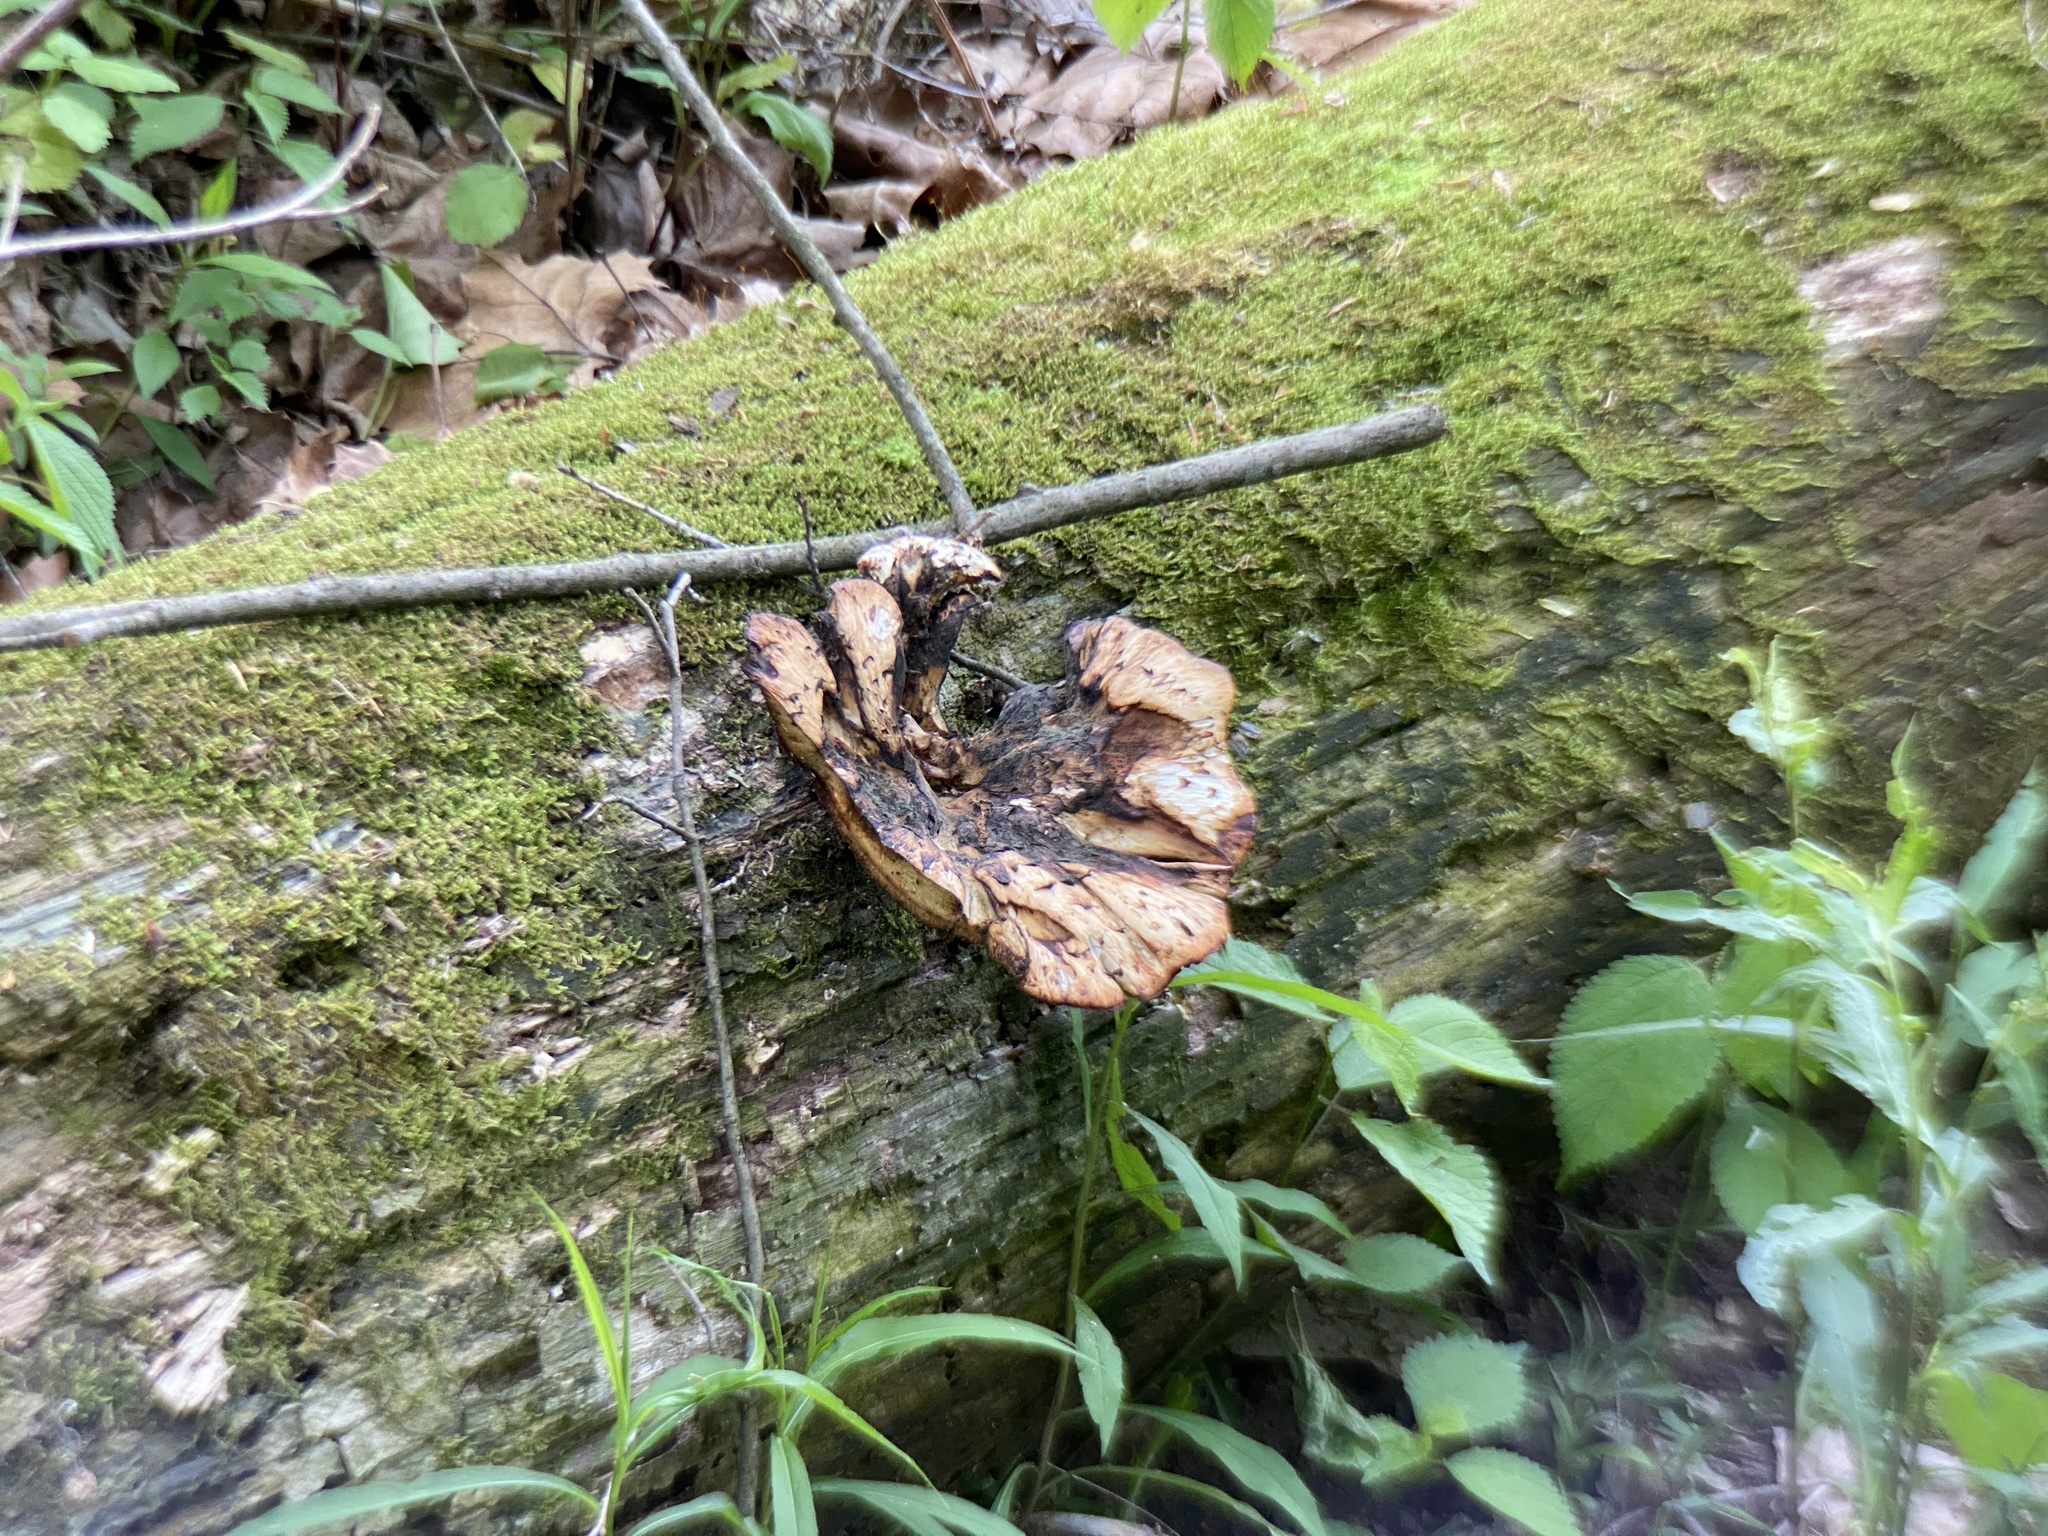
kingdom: Fungi
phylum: Basidiomycota
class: Agaricomycetes
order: Polyporales
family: Polyporaceae
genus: Cerioporus
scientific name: Cerioporus squamosus
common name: Dryad's saddle
